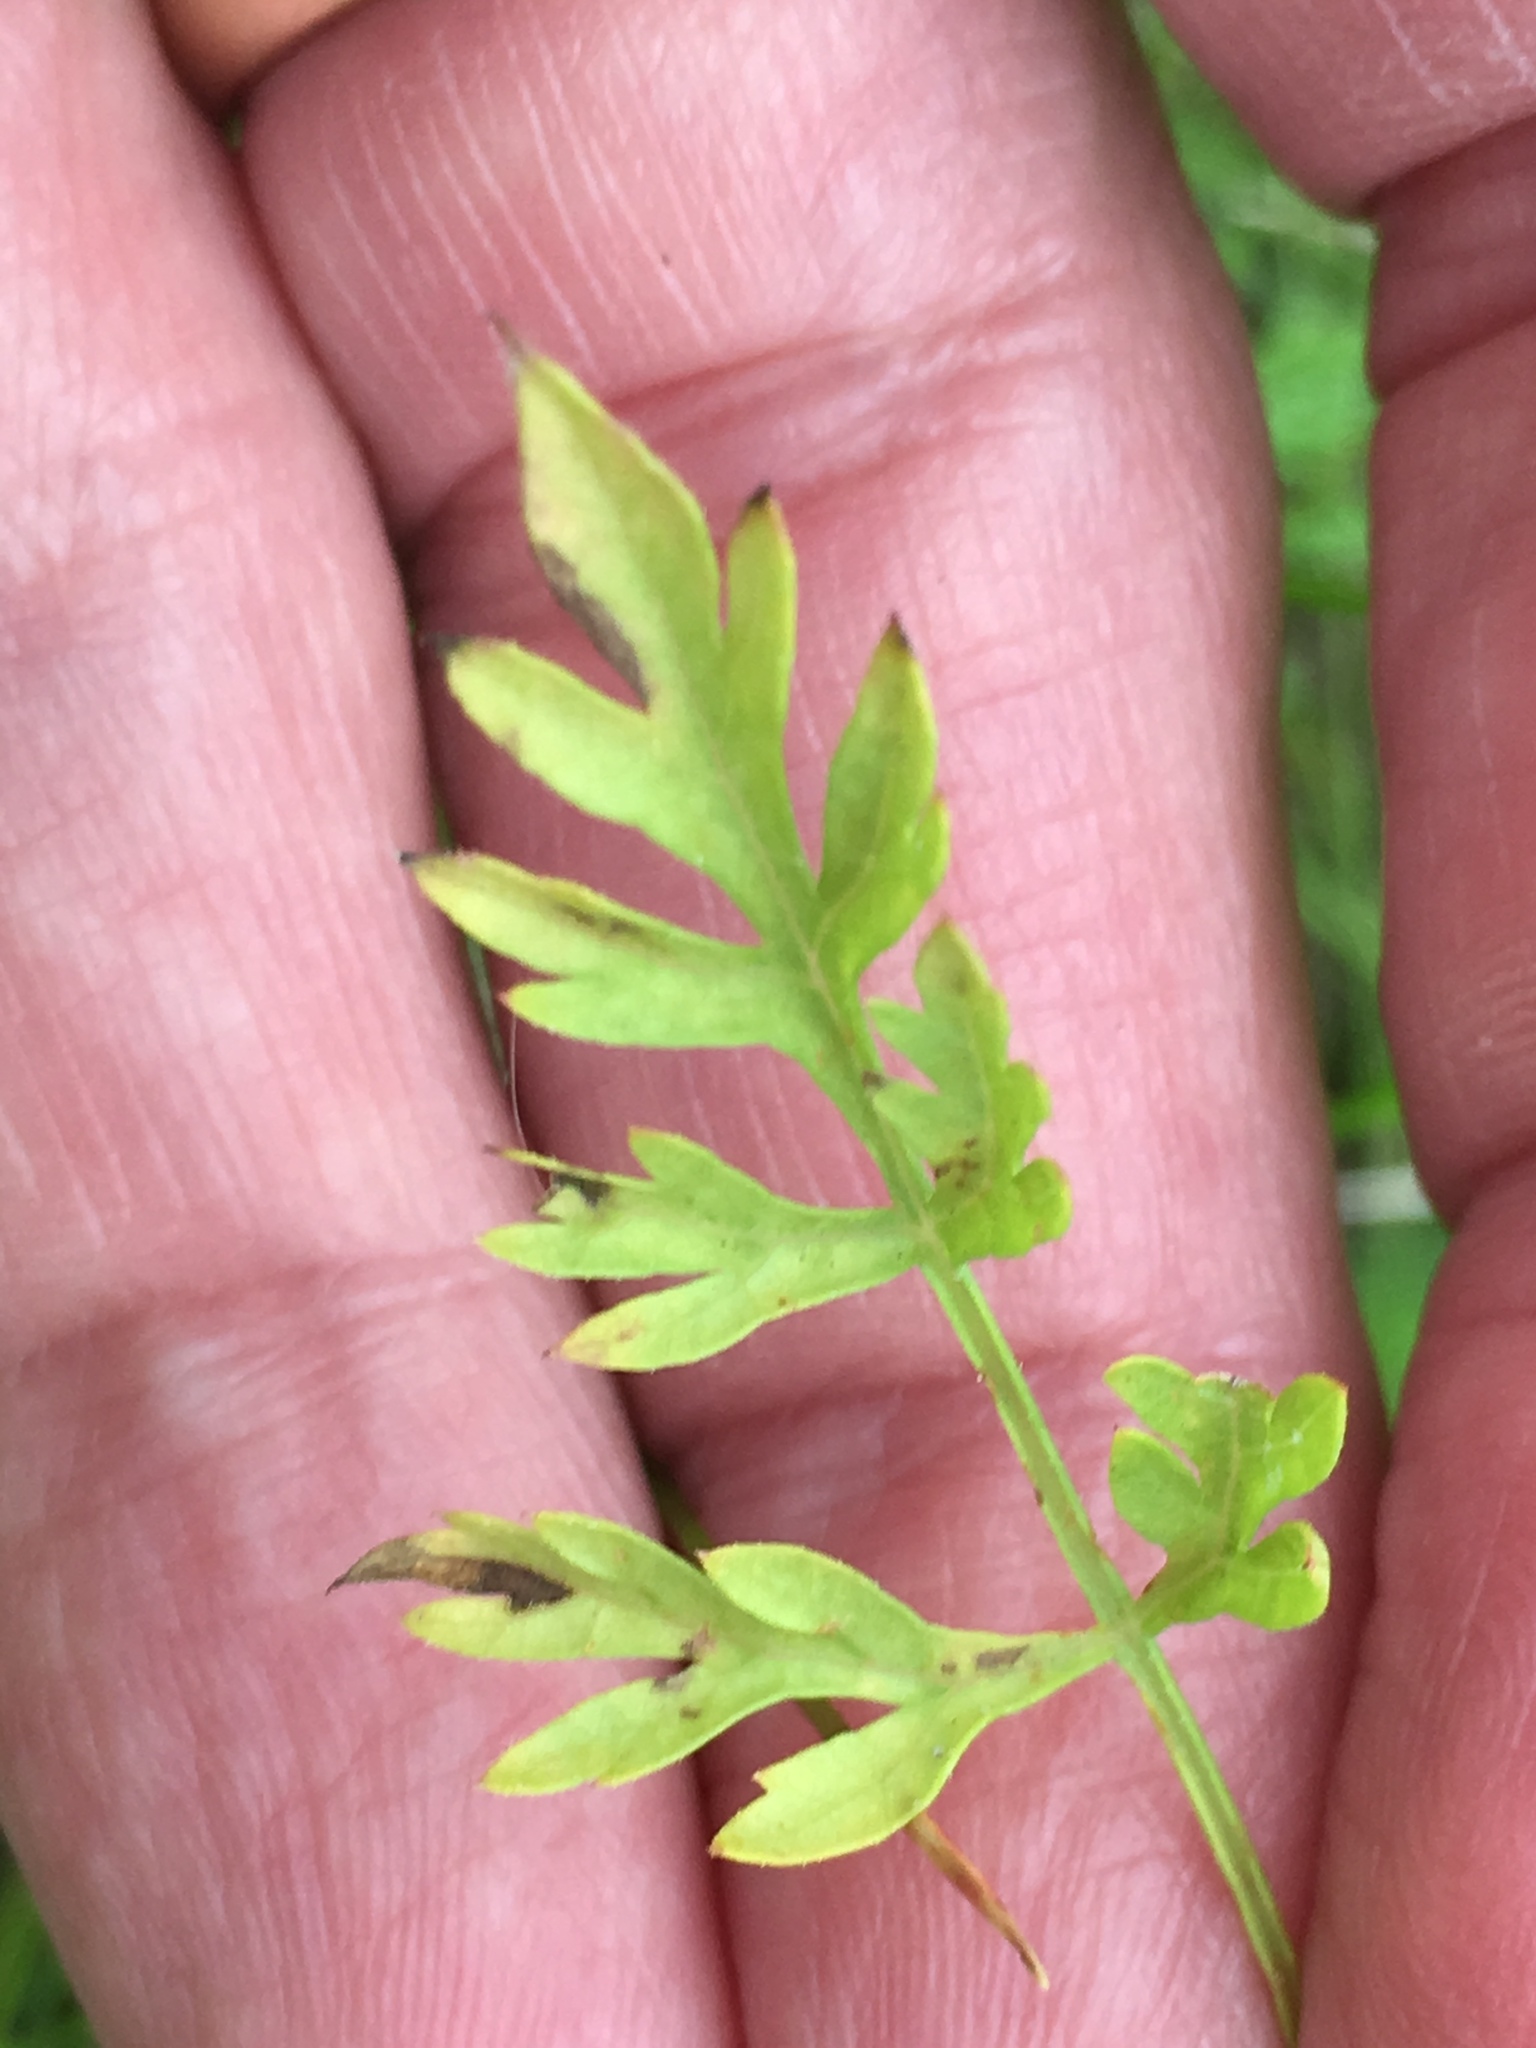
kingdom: Plantae
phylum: Tracheophyta
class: Magnoliopsida
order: Apiales
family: Apiaceae
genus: Daucus
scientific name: Daucus carota
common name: Wild carrot
